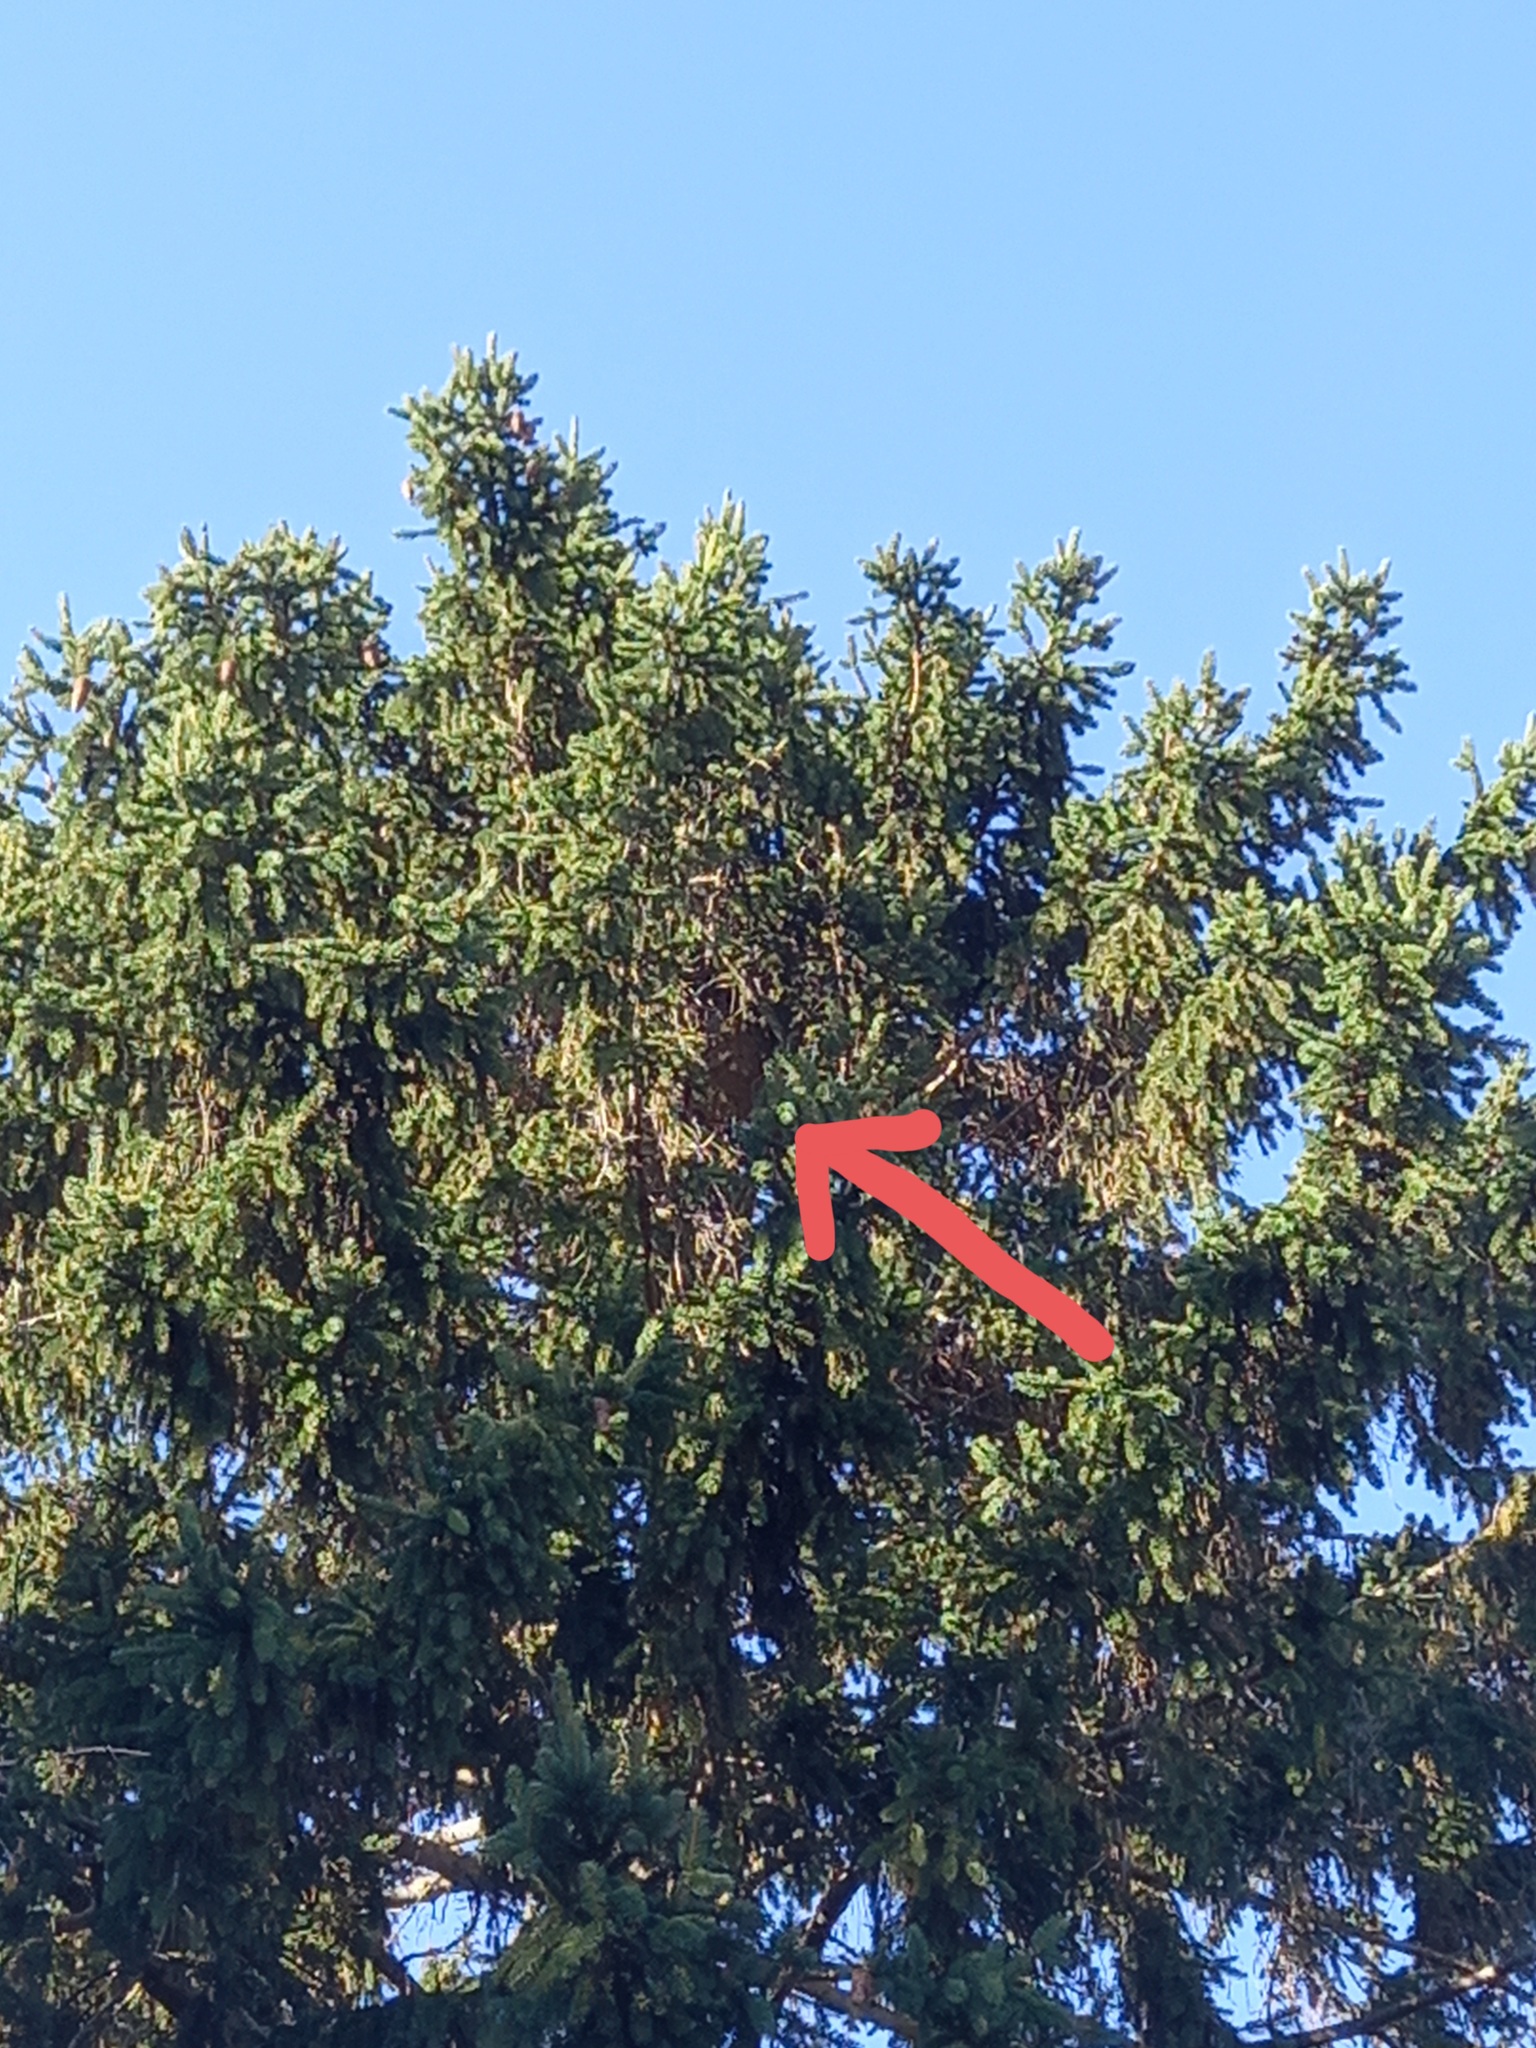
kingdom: Animalia
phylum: Arthropoda
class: Insecta
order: Hymenoptera
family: Vespidae
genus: Vespa
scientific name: Vespa velutina
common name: Asian hornet
